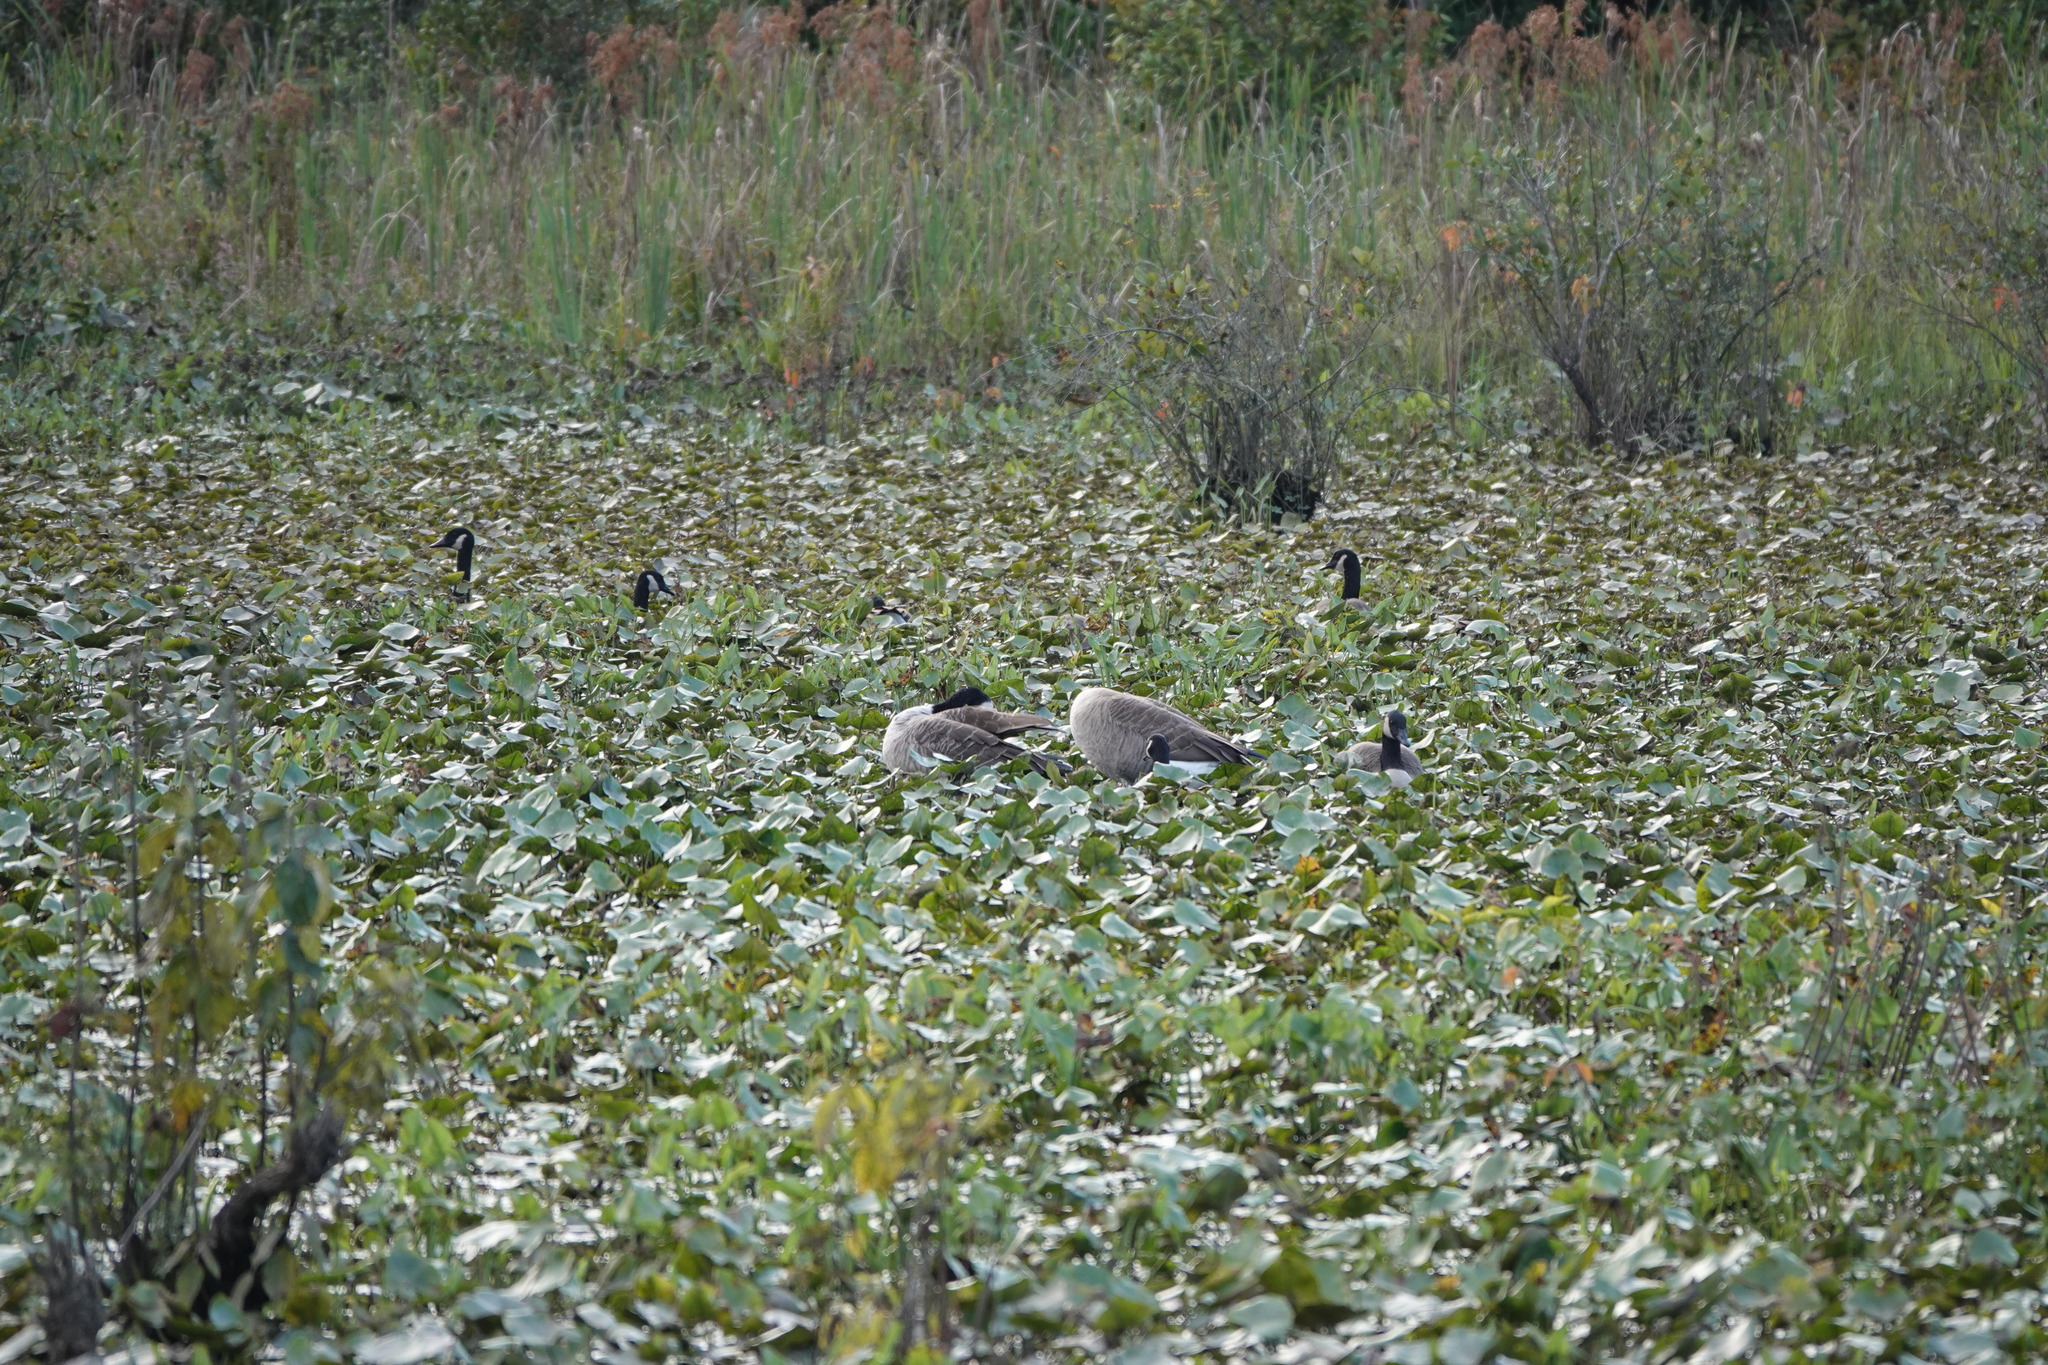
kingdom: Animalia
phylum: Chordata
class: Aves
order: Anseriformes
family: Anatidae
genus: Branta
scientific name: Branta canadensis
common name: Canada goose
